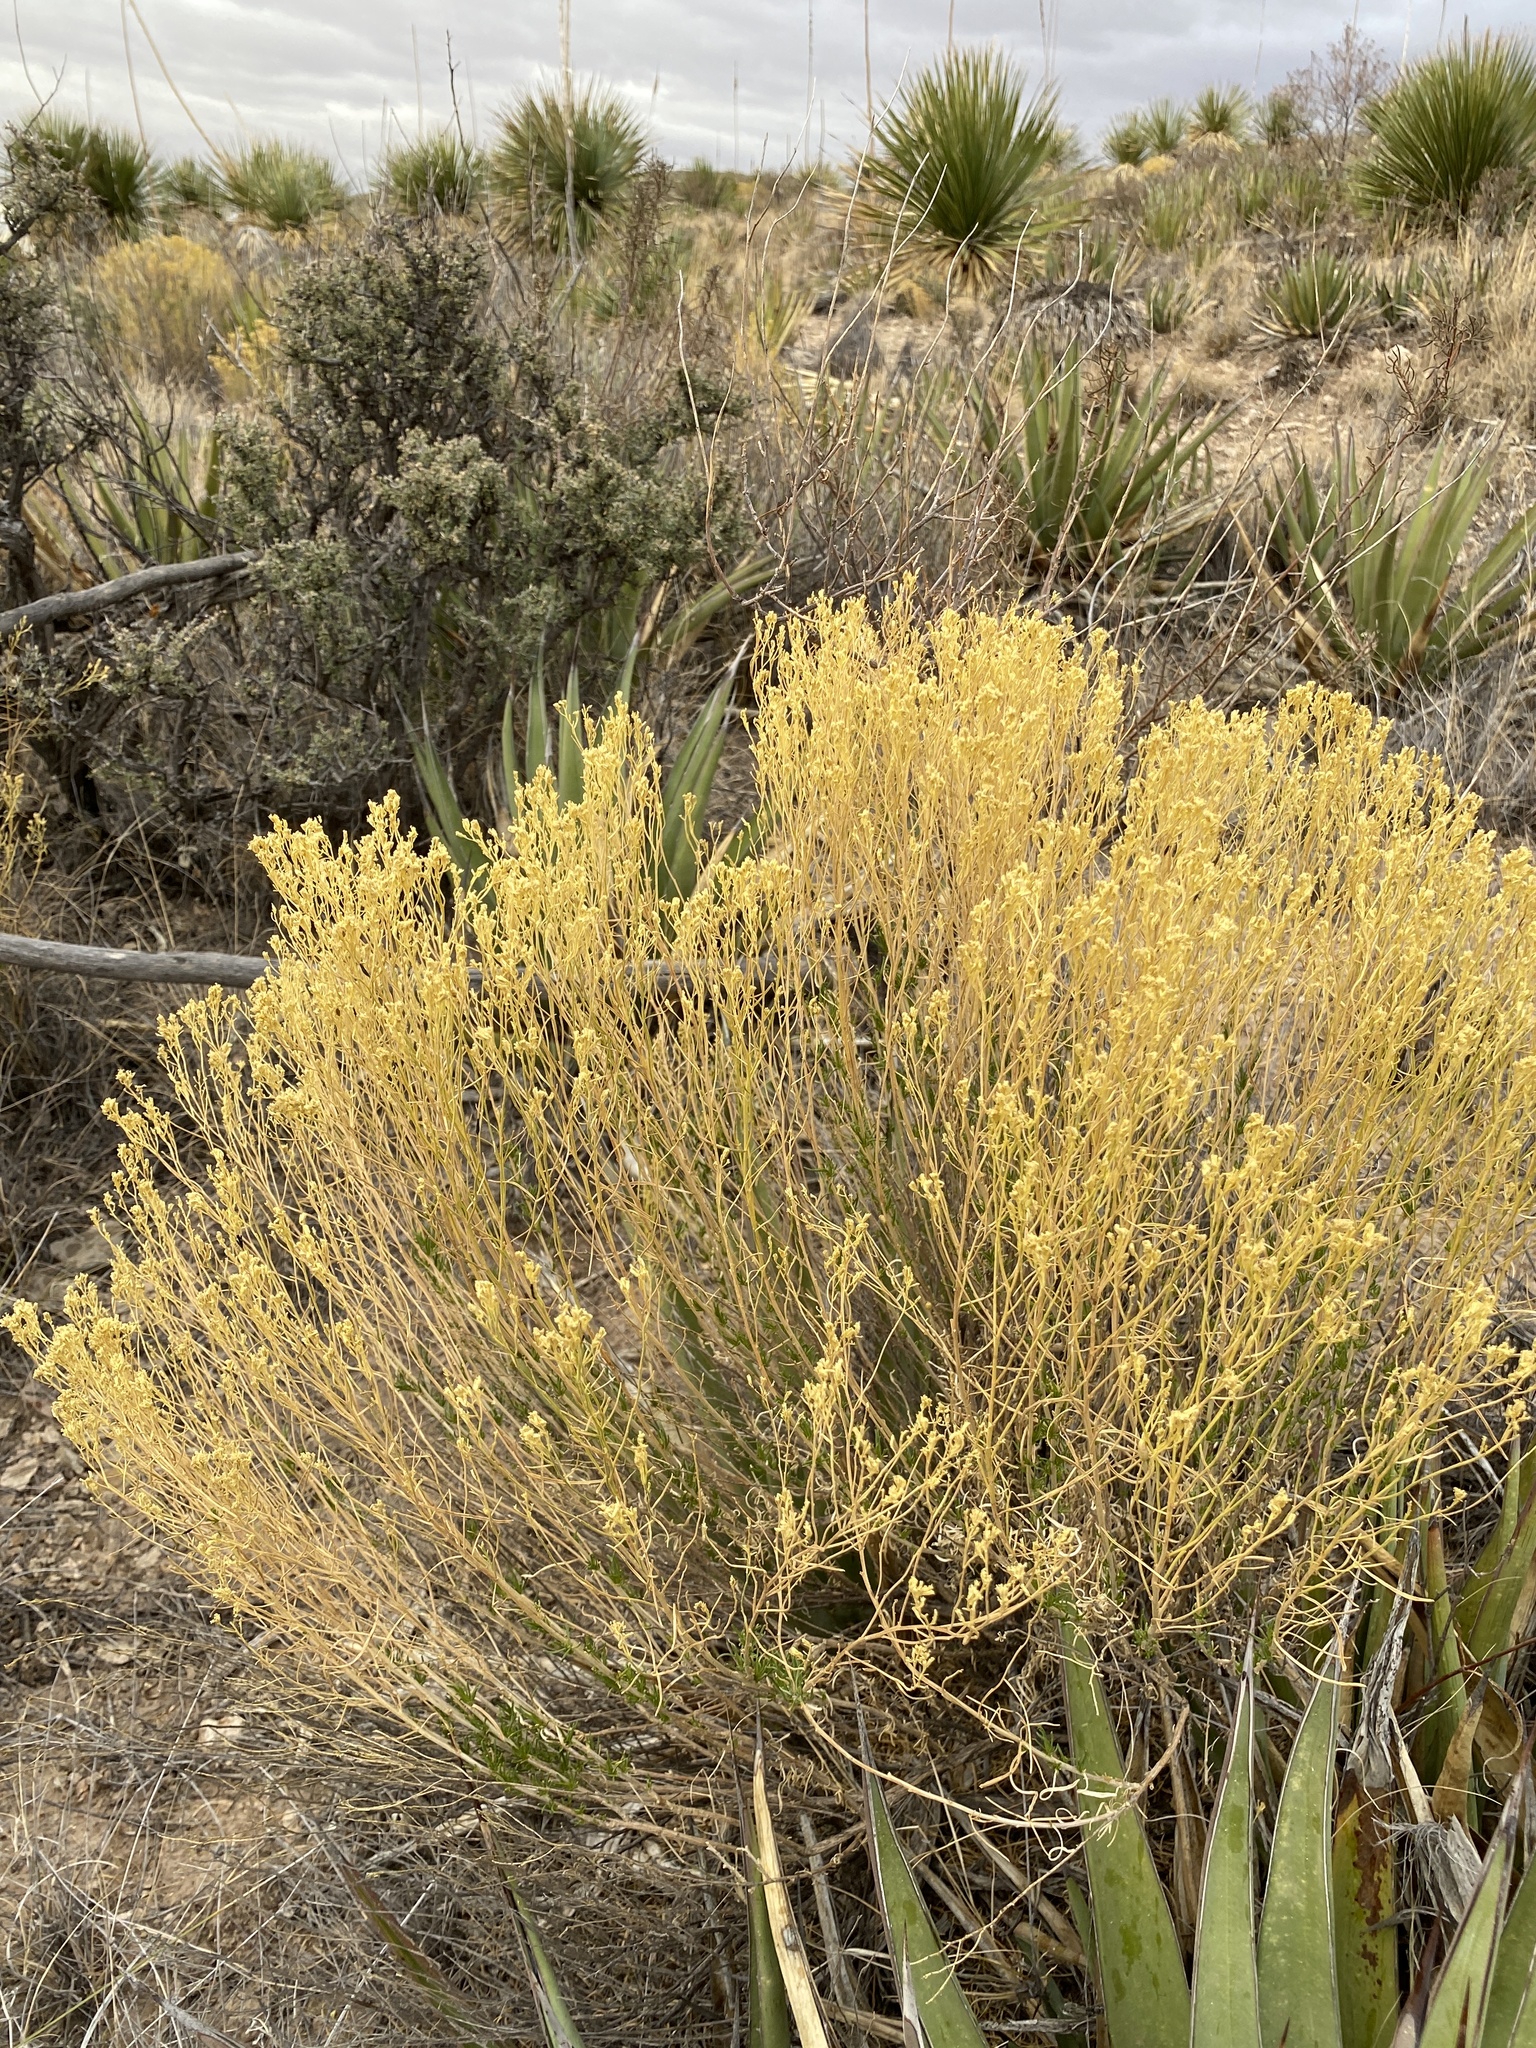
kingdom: Plantae
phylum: Tracheophyta
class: Magnoliopsida
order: Asterales
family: Asteraceae
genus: Gutierrezia
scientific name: Gutierrezia microcephala
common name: Thread snakeweed
